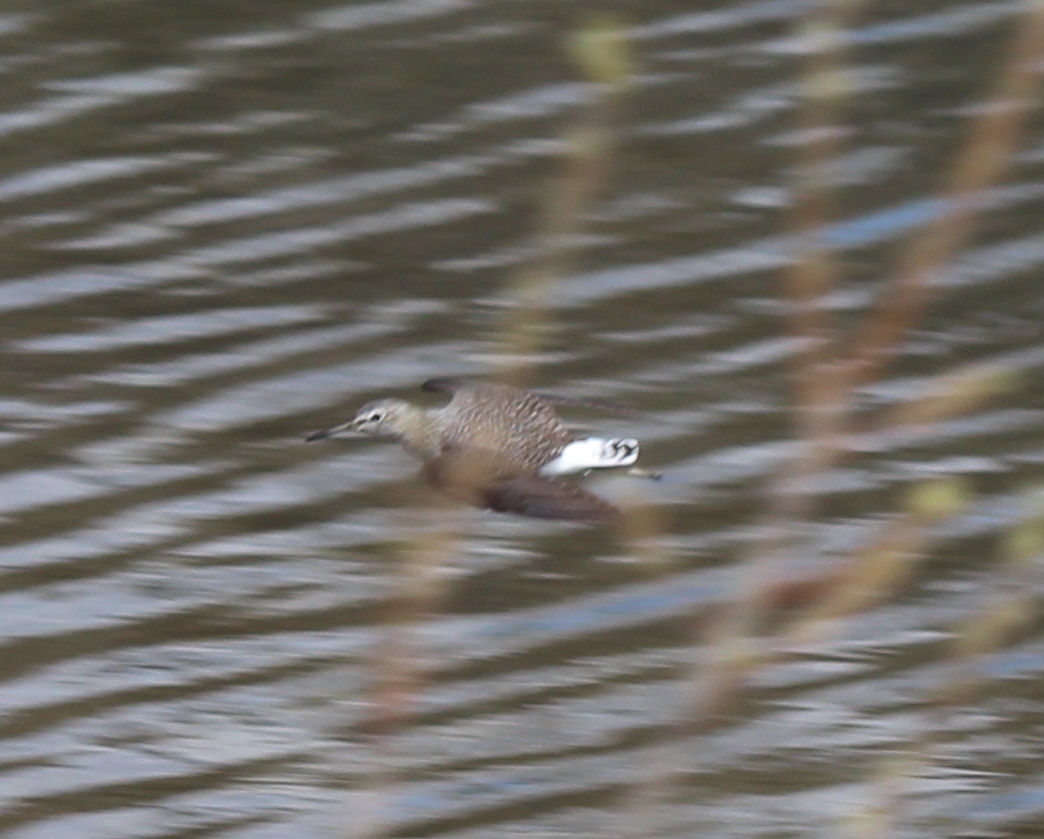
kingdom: Animalia
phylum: Chordata
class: Aves
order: Charadriiformes
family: Scolopacidae
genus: Tringa
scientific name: Tringa ochropus
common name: Green sandpiper
